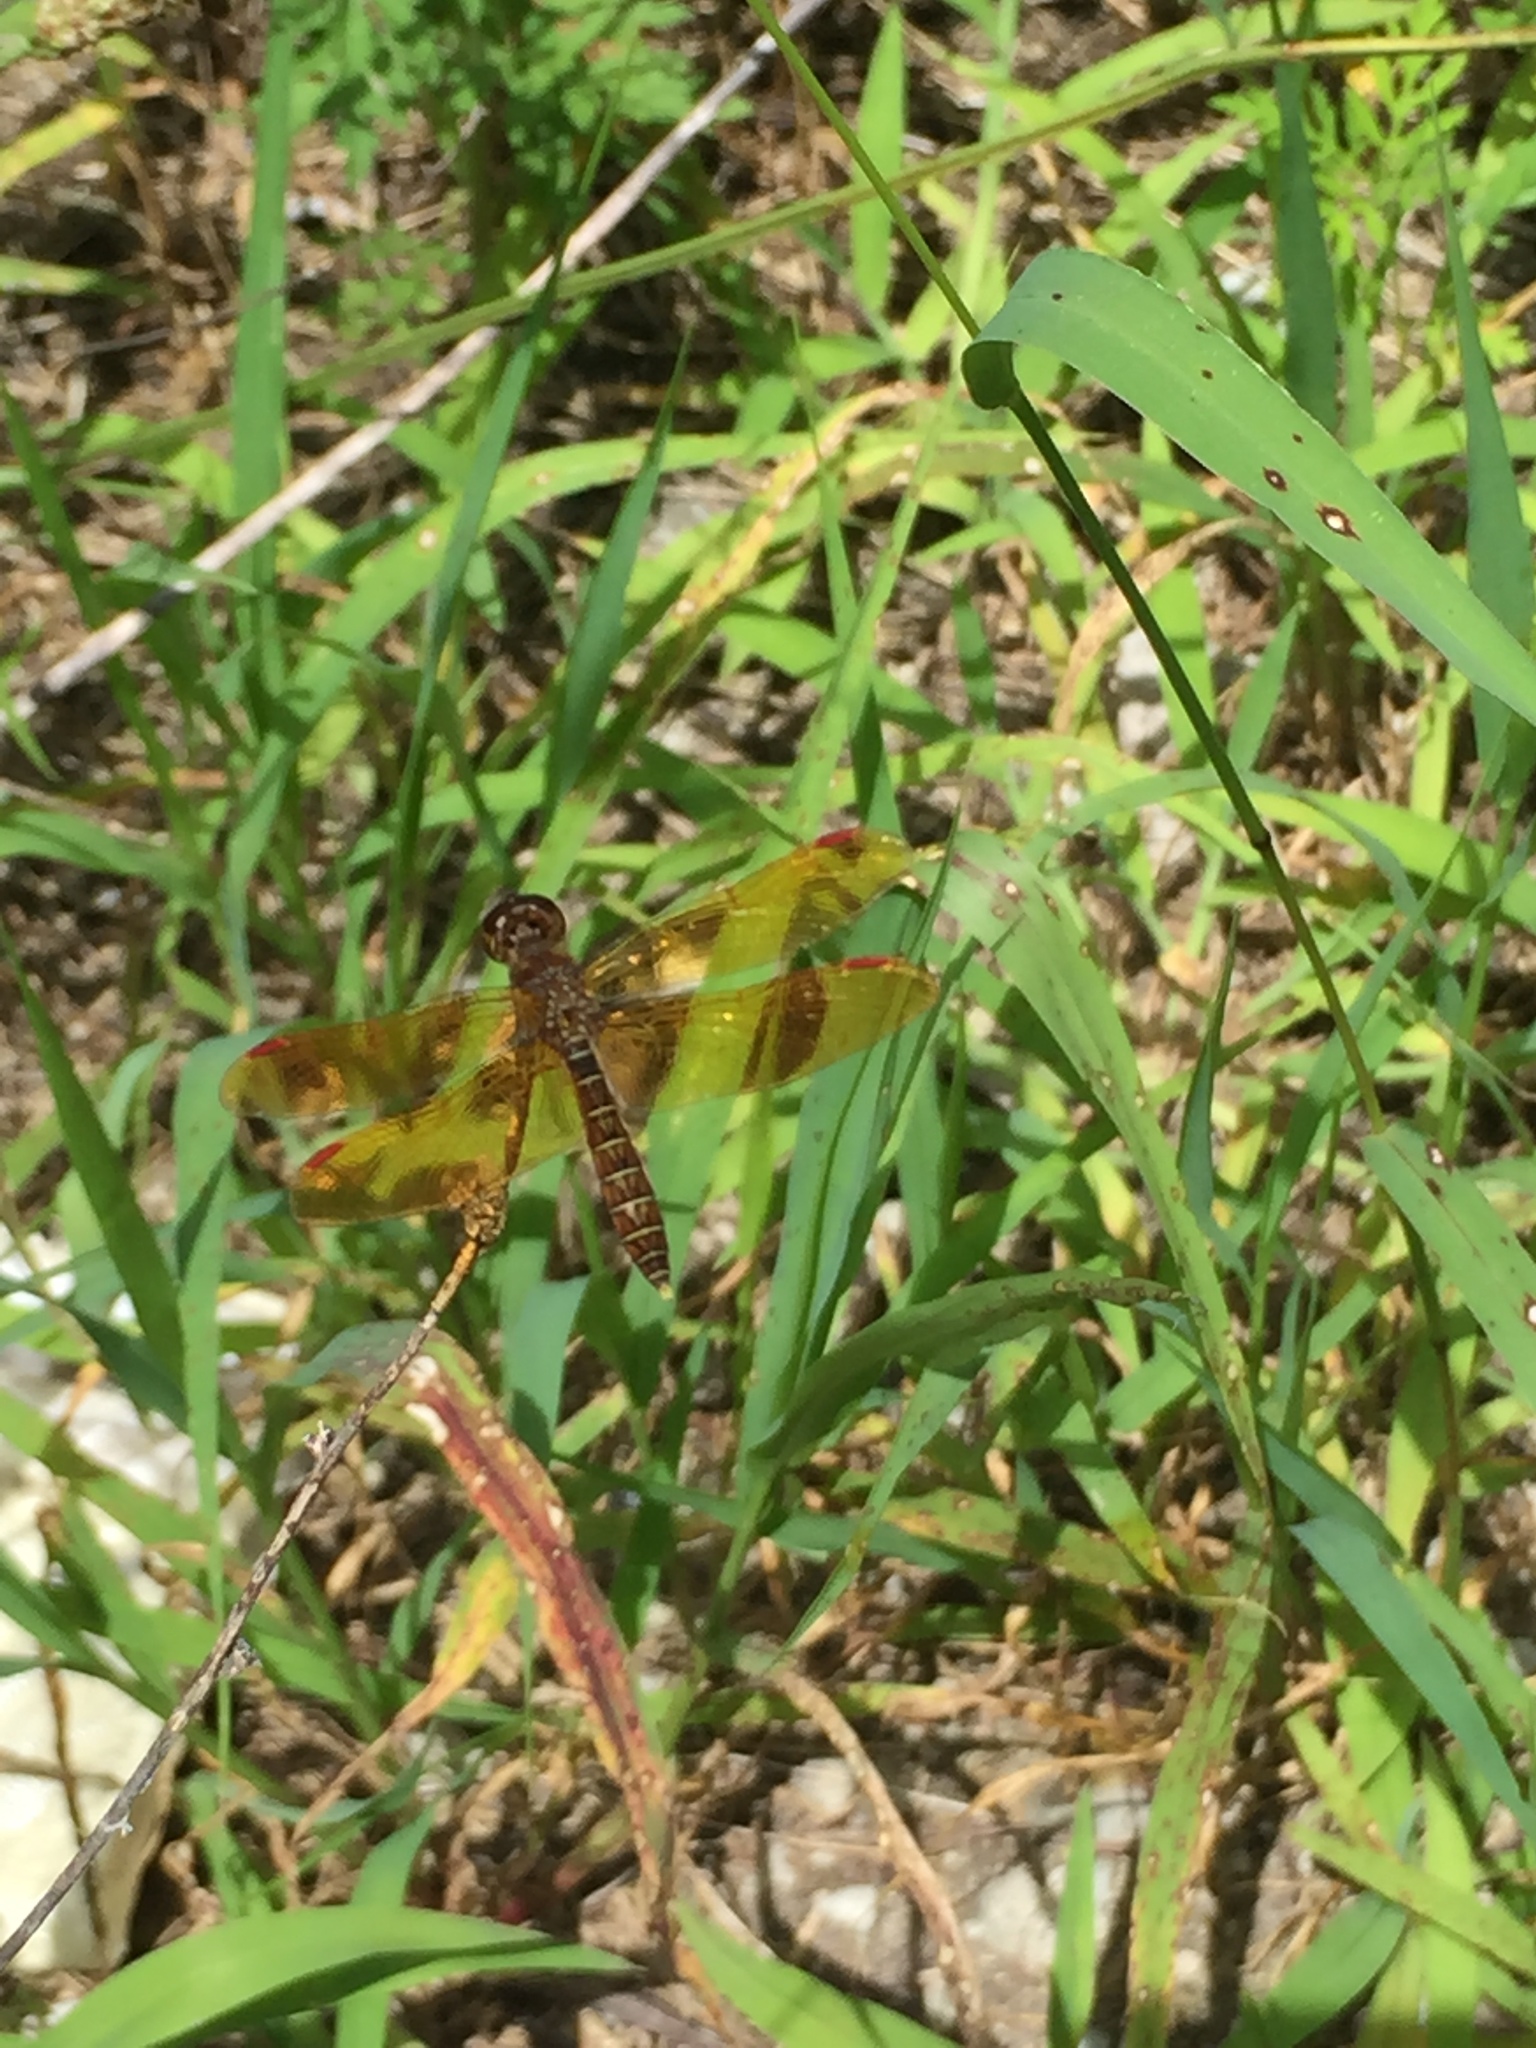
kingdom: Animalia
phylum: Arthropoda
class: Insecta
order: Odonata
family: Libellulidae
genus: Perithemis
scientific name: Perithemis tenera
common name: Eastern amberwing
